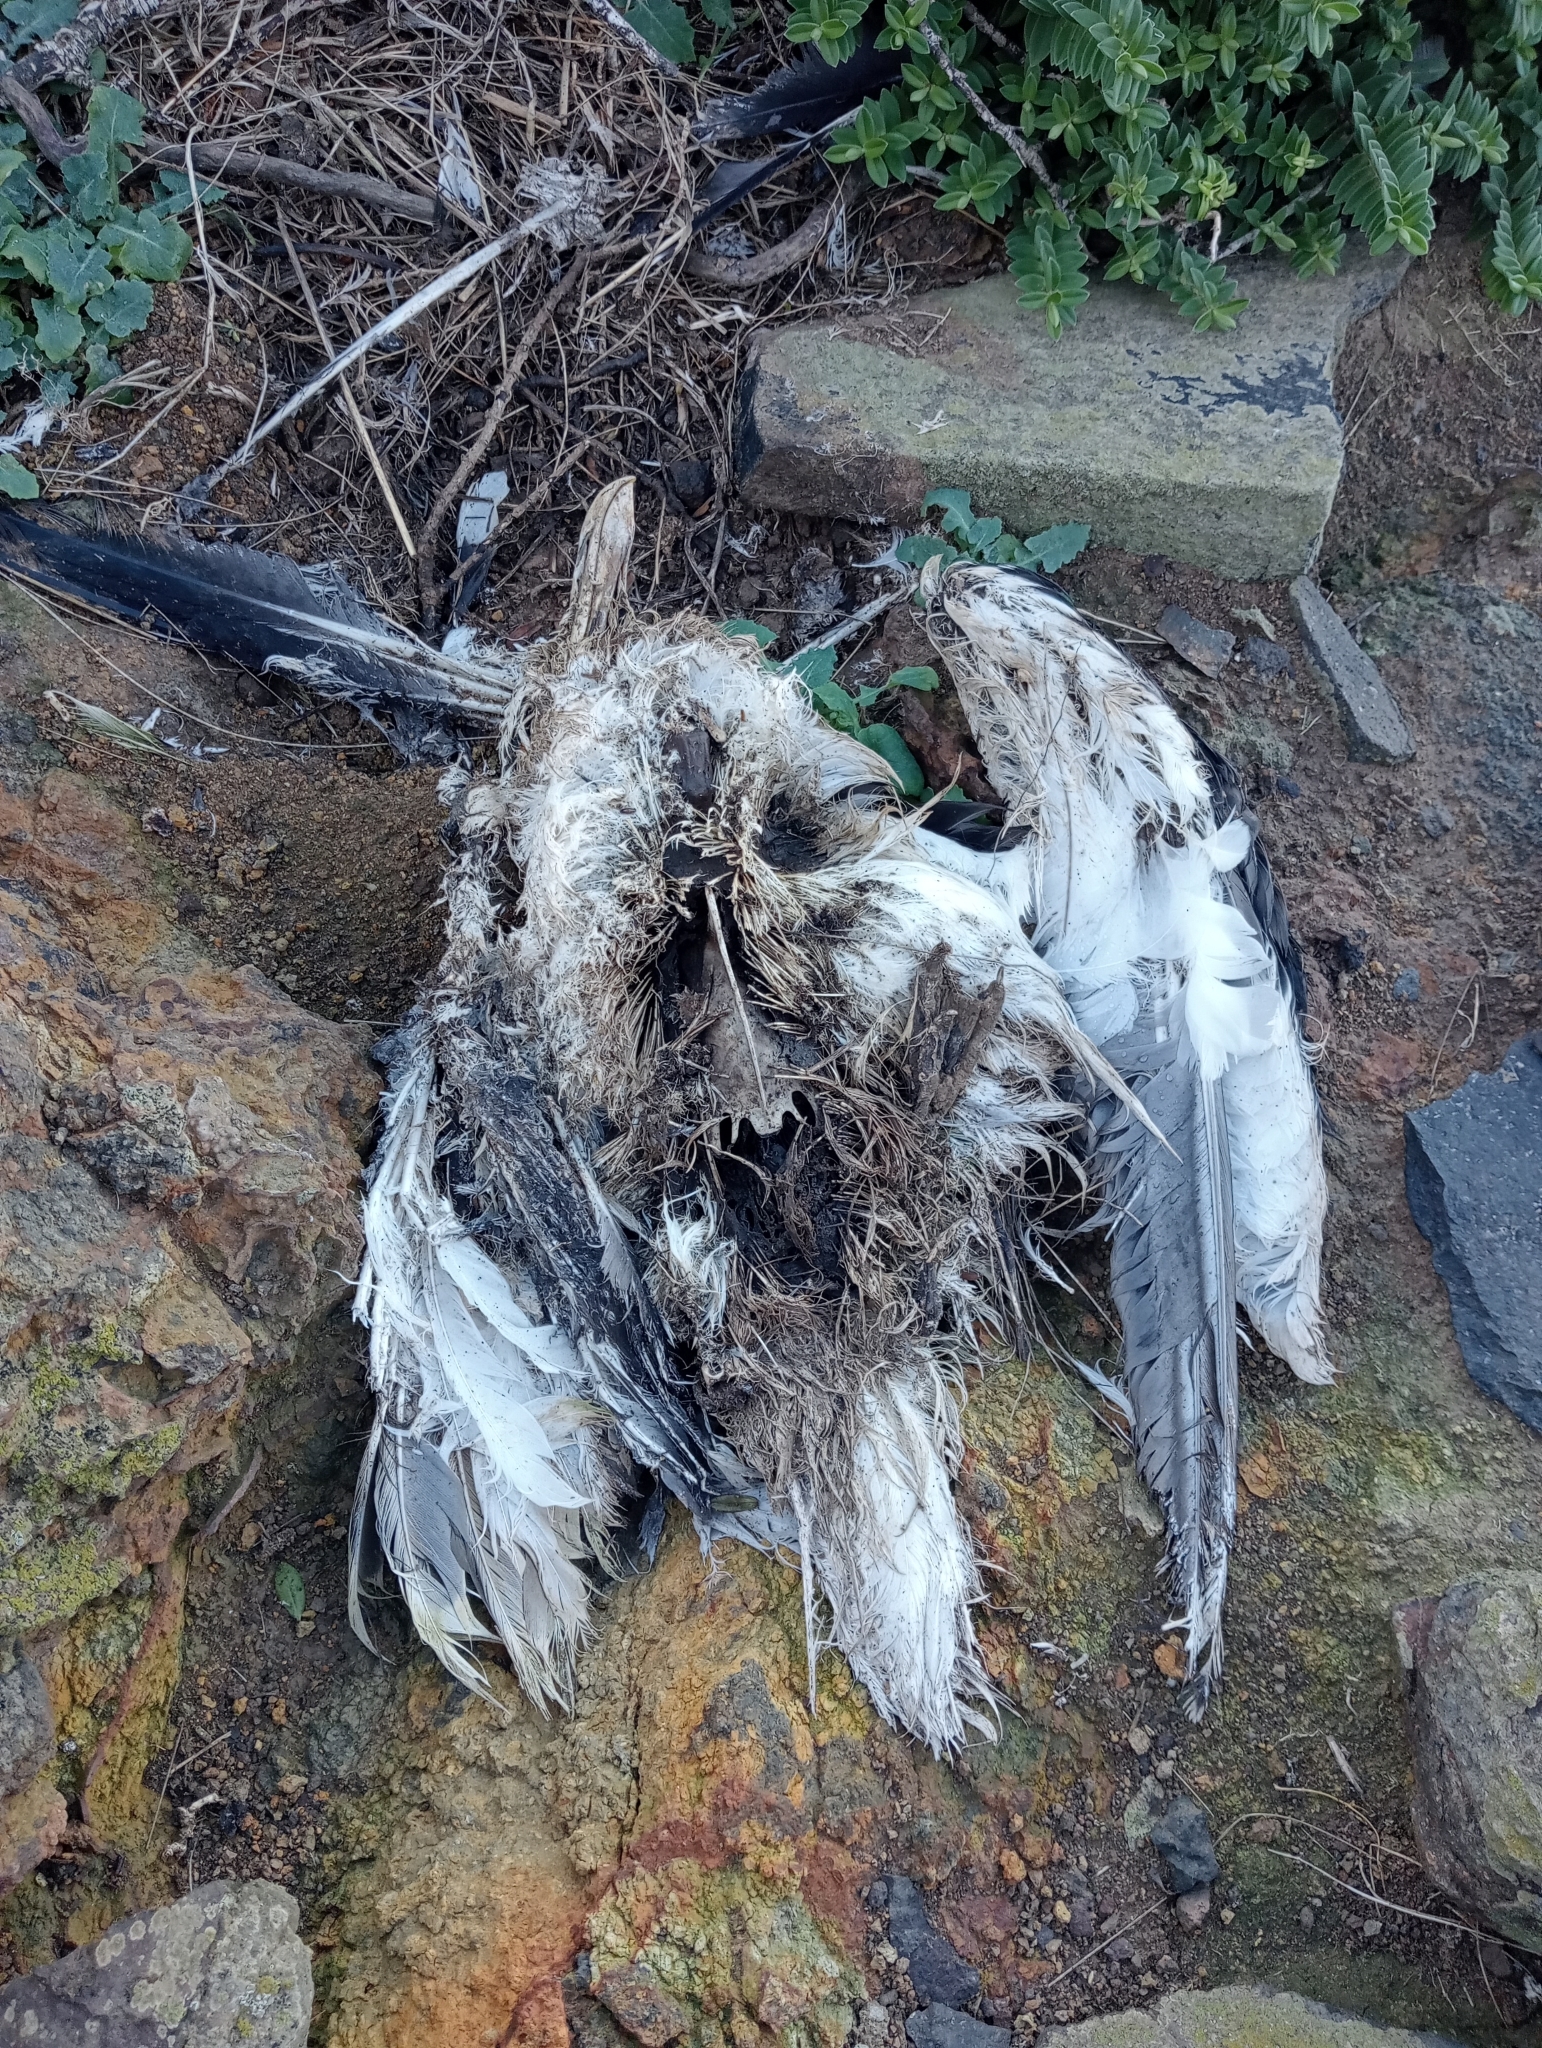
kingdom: Animalia
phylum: Chordata
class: Aves
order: Charadriiformes
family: Laridae
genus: Larus
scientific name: Larus dominicanus
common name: Kelp gull
